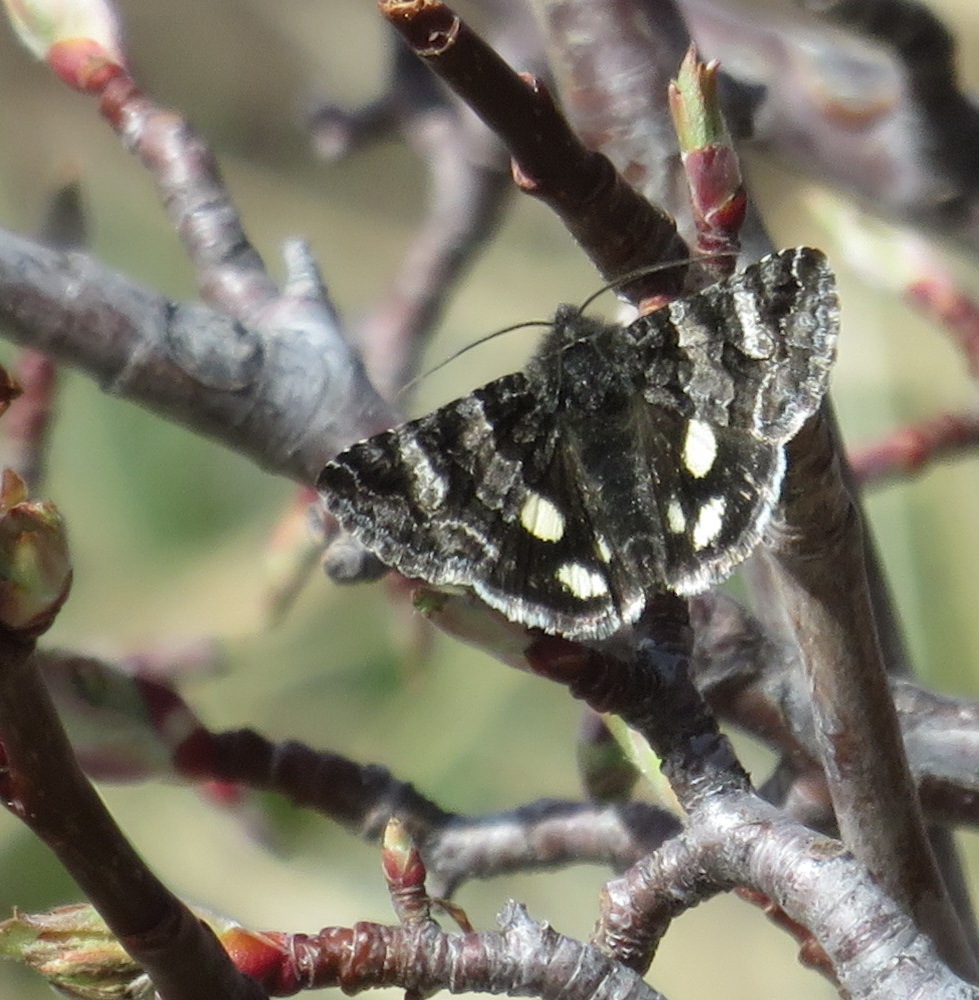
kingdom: Animalia
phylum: Arthropoda
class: Insecta
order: Lepidoptera
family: Erebidae
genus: Litocala
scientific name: Litocala sexsignata
